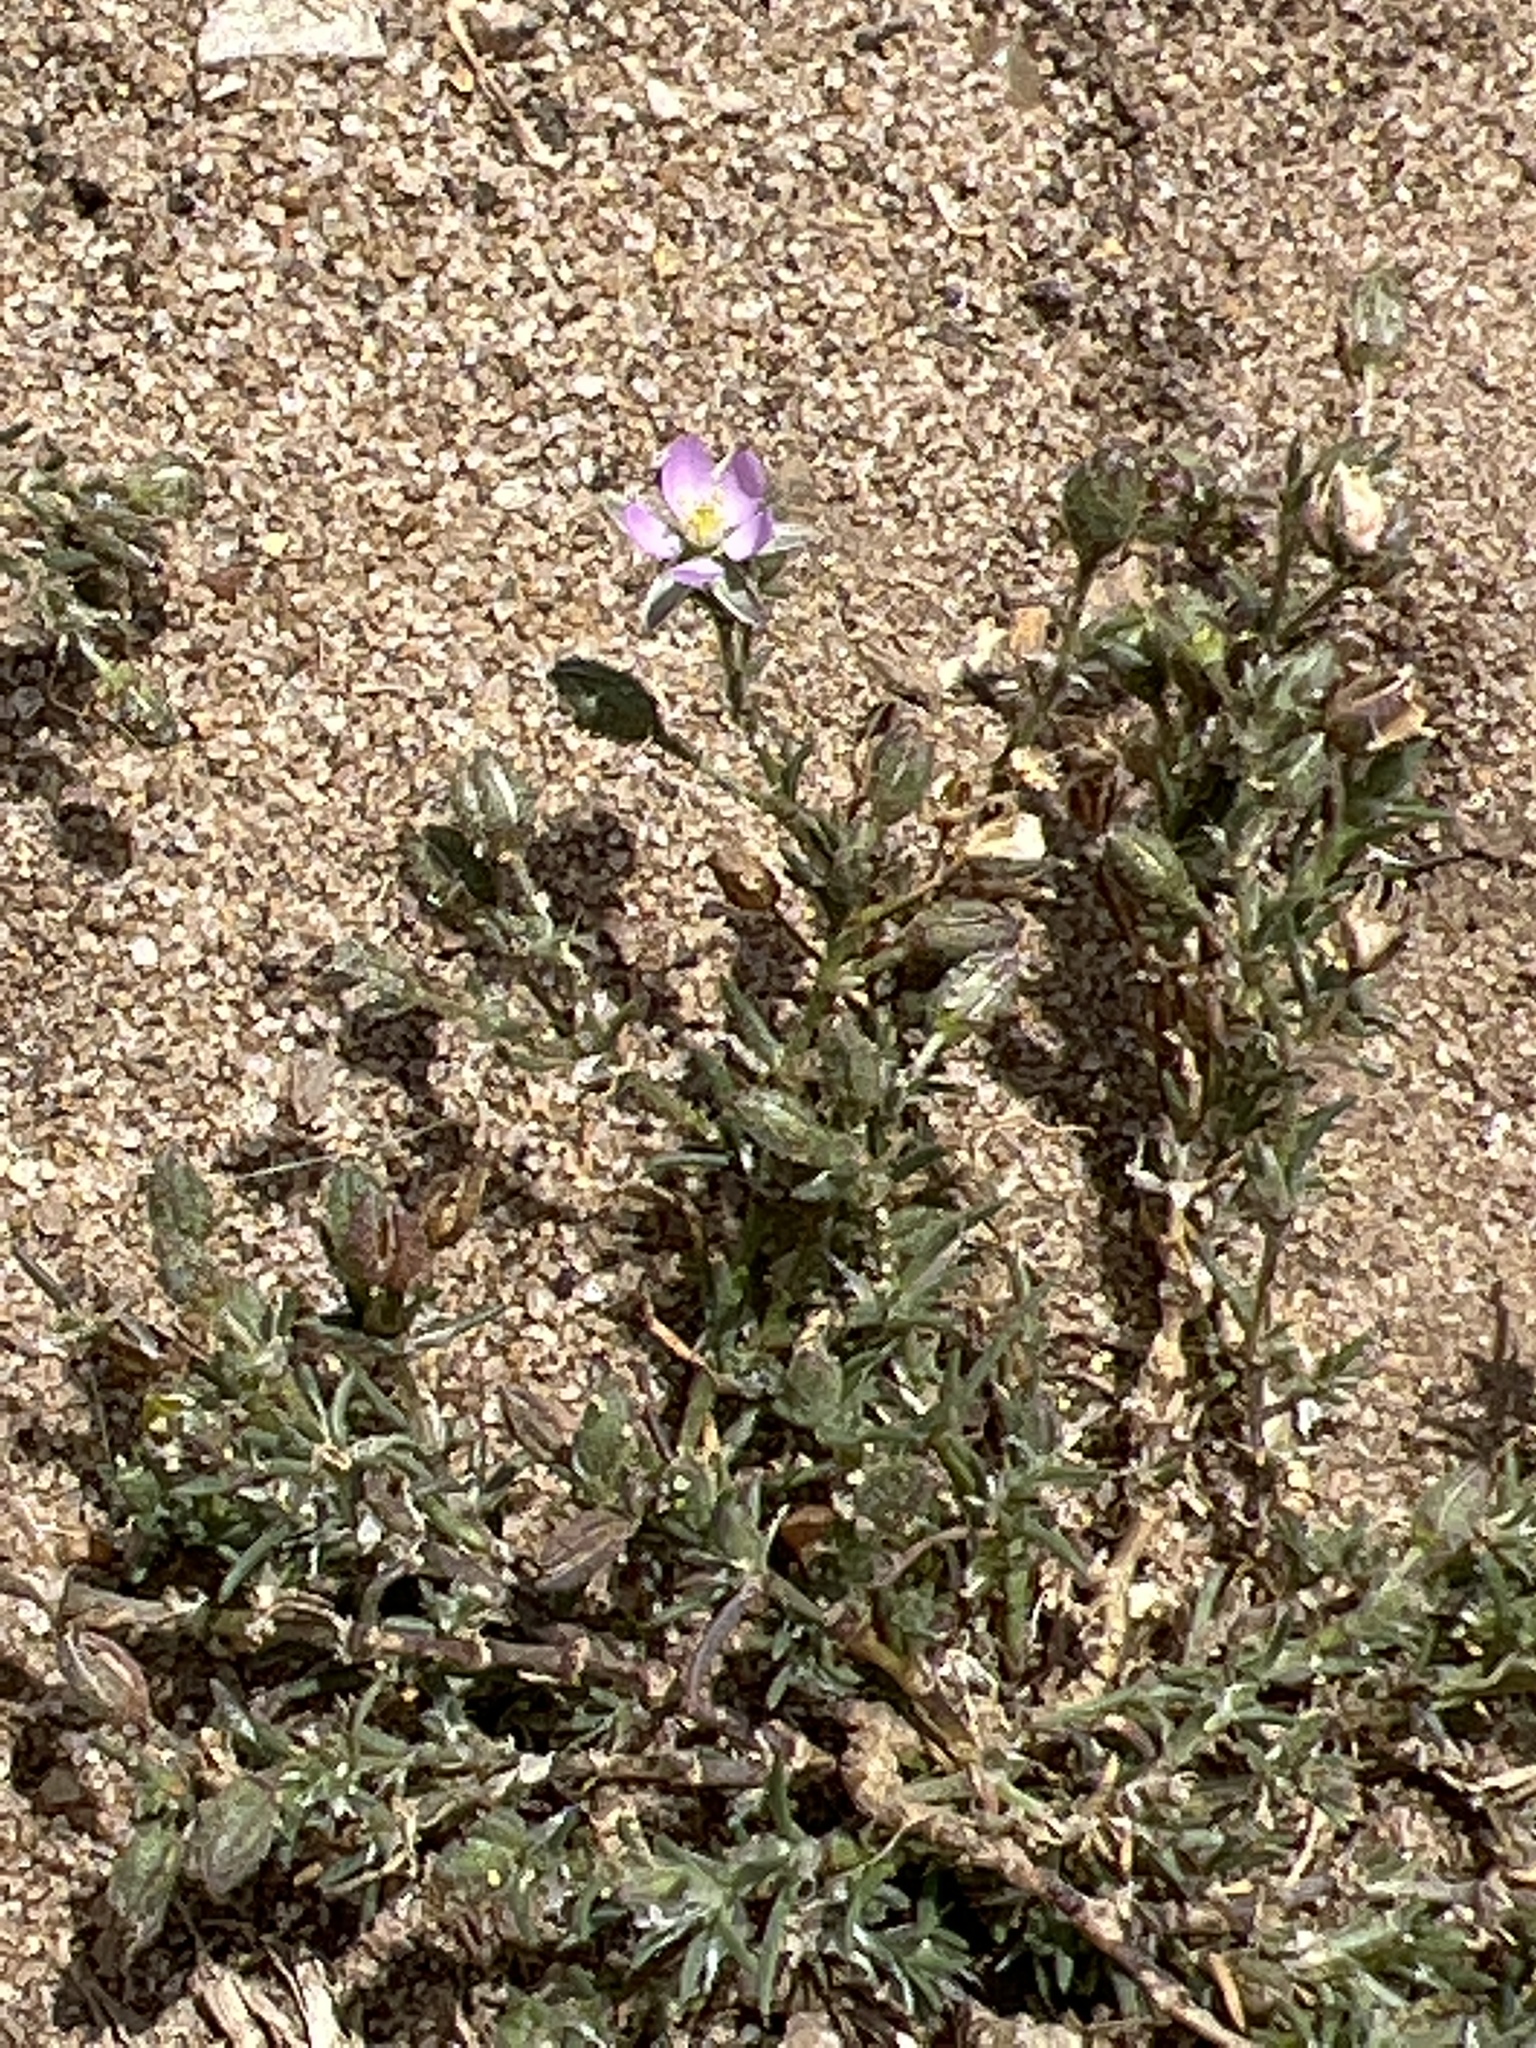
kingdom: Plantae
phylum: Tracheophyta
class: Magnoliopsida
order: Caryophyllales
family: Caryophyllaceae
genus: Spergularia
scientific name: Spergularia rubra
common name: Red sand-spurrey
